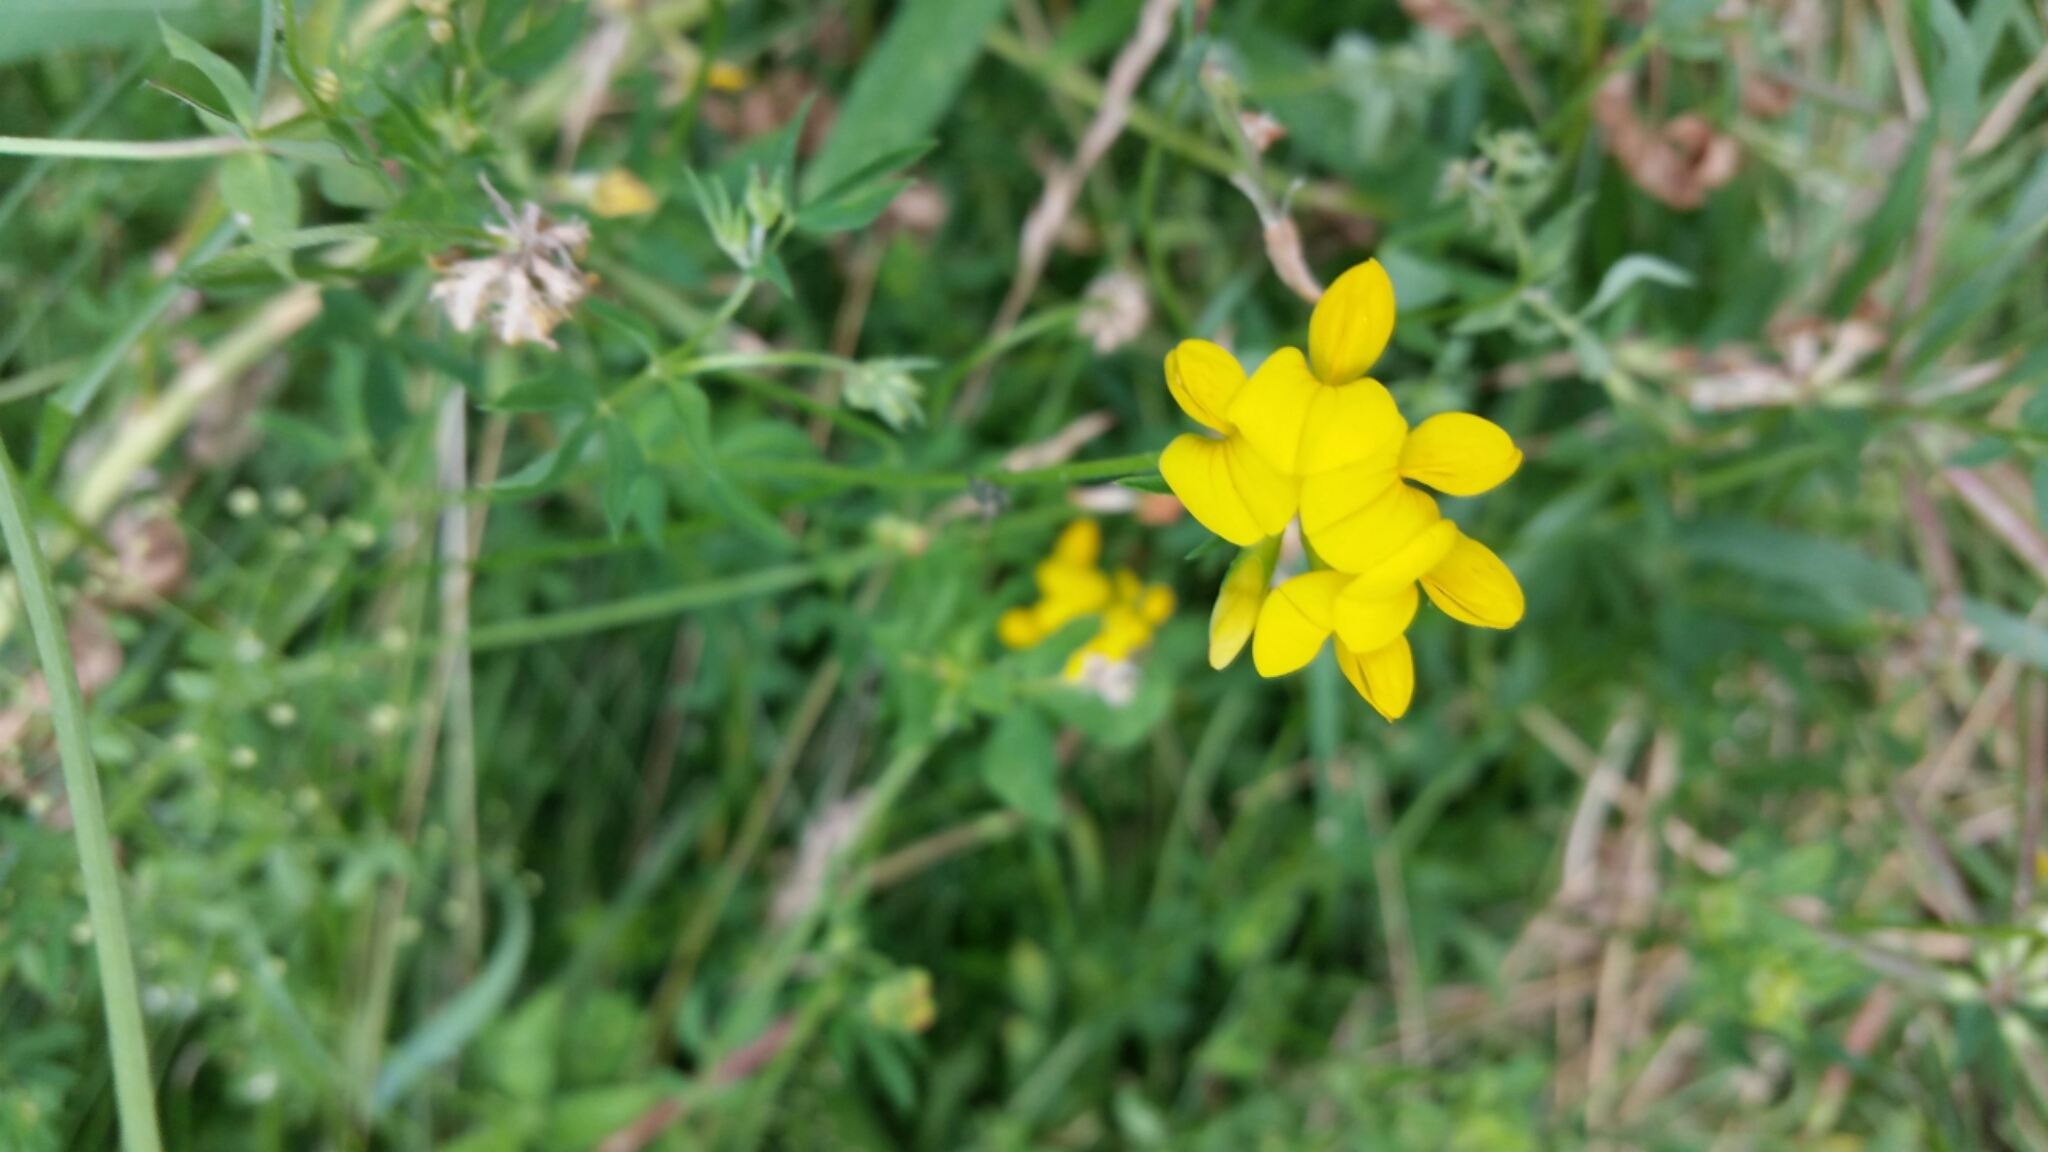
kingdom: Plantae
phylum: Tracheophyta
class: Magnoliopsida
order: Fabales
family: Fabaceae
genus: Lotus
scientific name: Lotus corniculatus
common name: Common bird's-foot-trefoil
